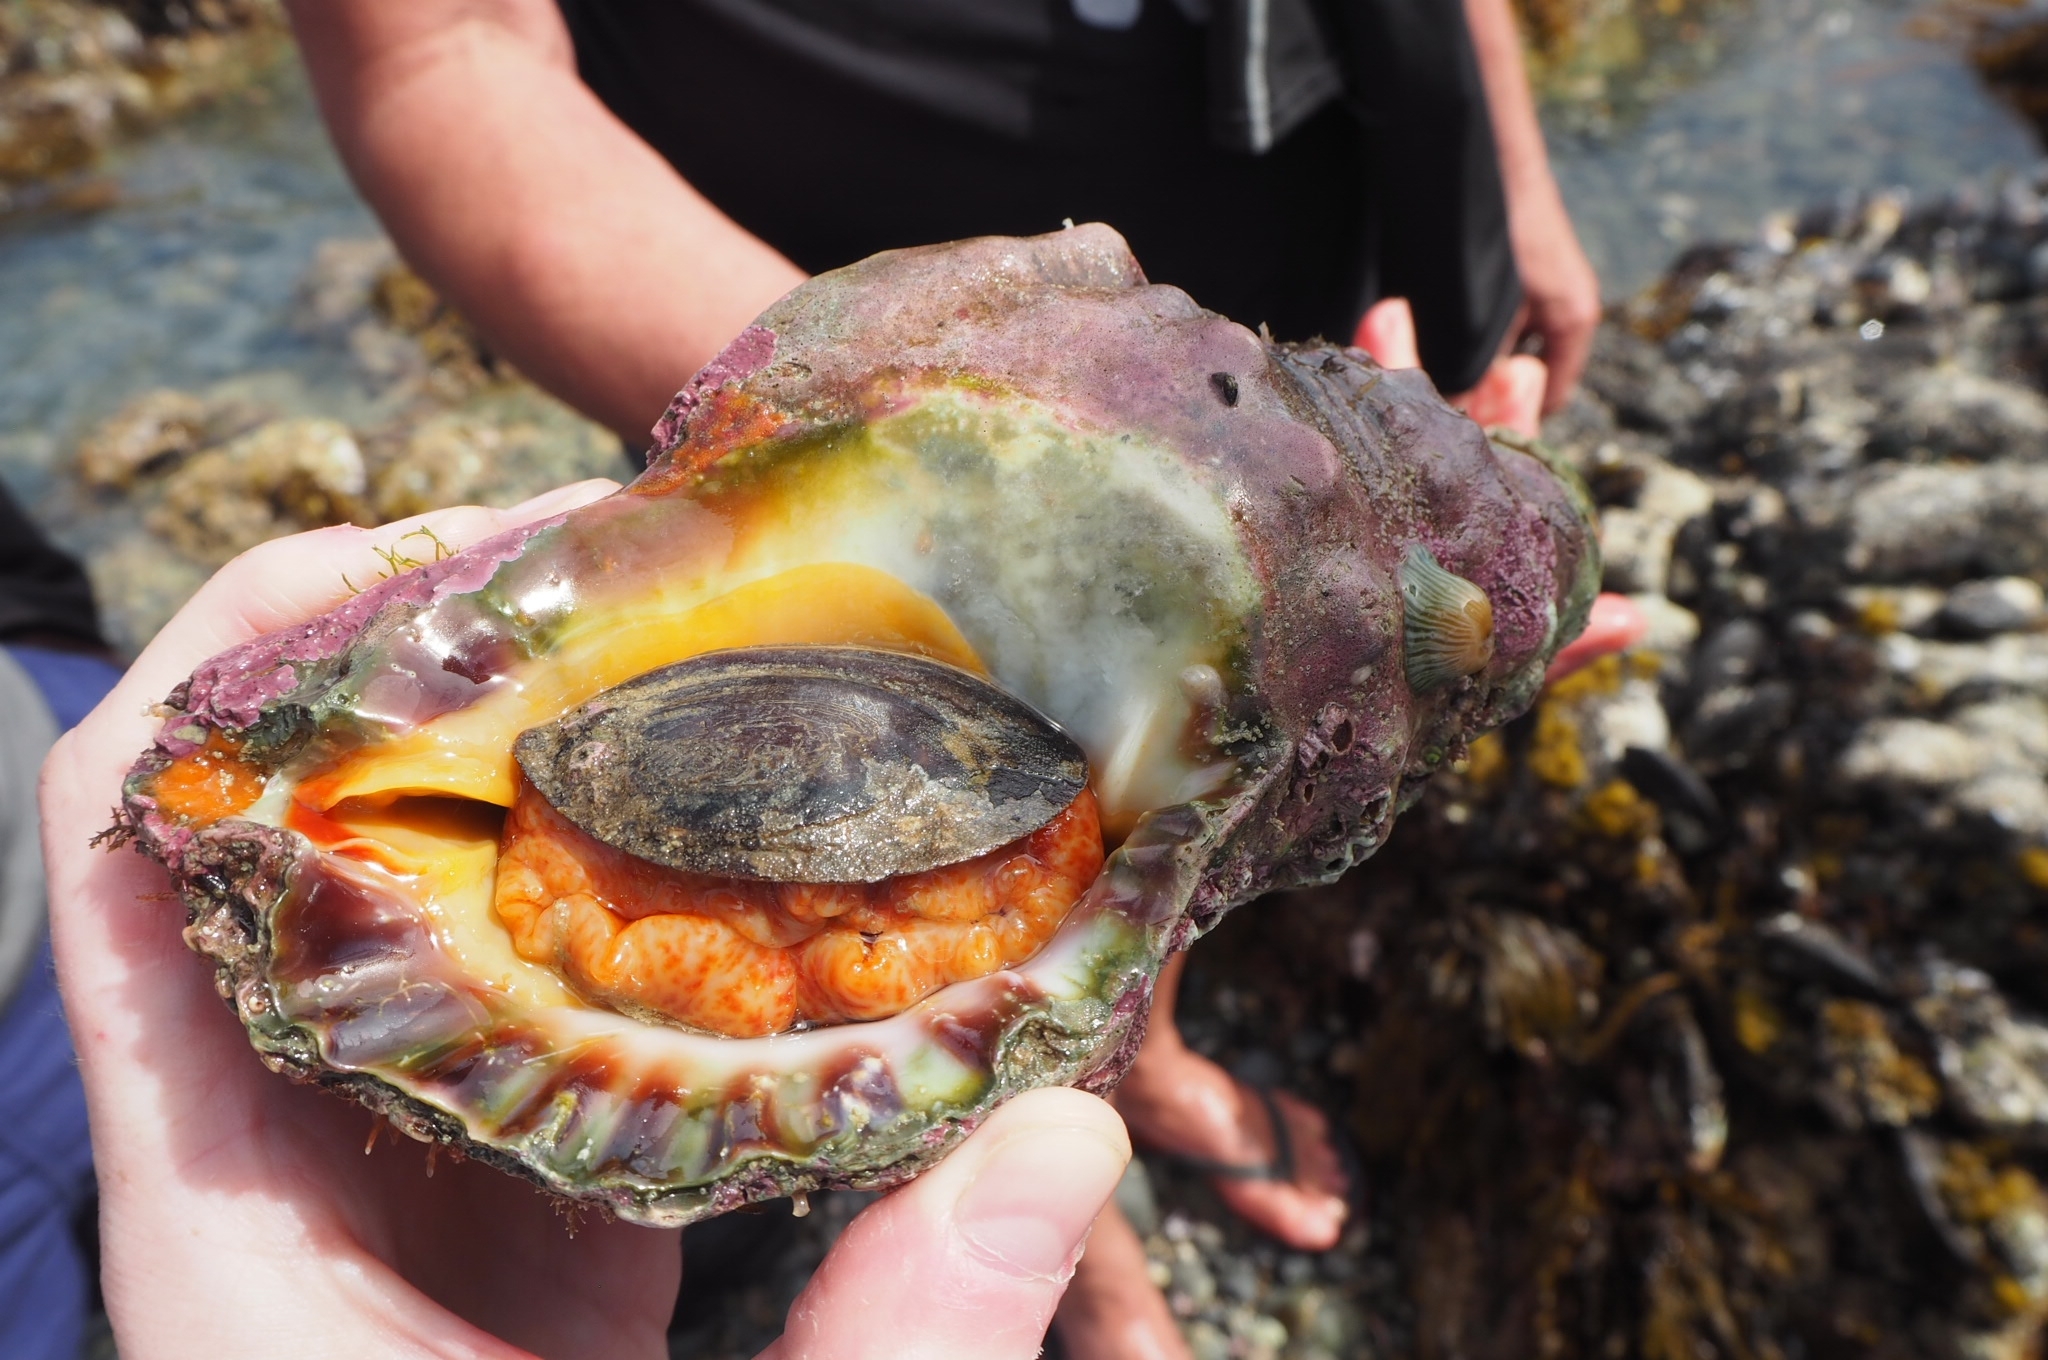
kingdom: Animalia
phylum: Mollusca
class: Gastropoda
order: Littorinimorpha
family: Charoniidae
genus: Charonia
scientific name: Charonia lampas
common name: Knobbed triton
